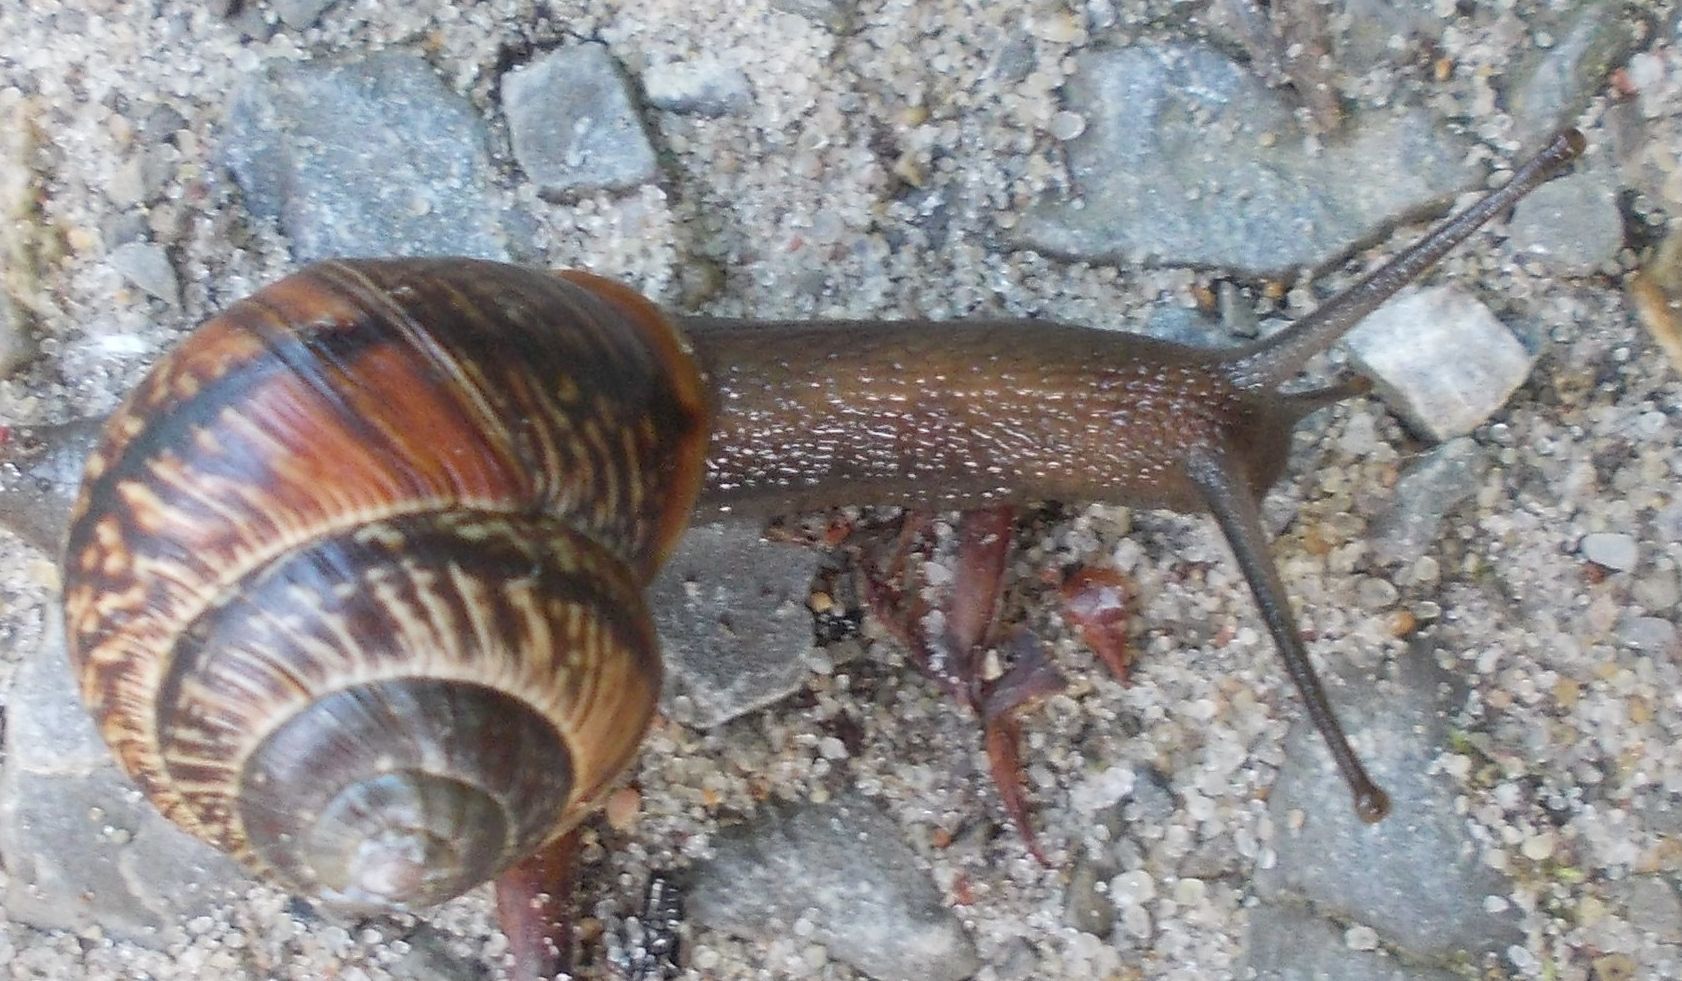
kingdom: Animalia
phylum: Mollusca
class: Gastropoda
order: Stylommatophora
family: Helicidae
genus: Arianta
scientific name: Arianta arbustorum
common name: Copse snail
